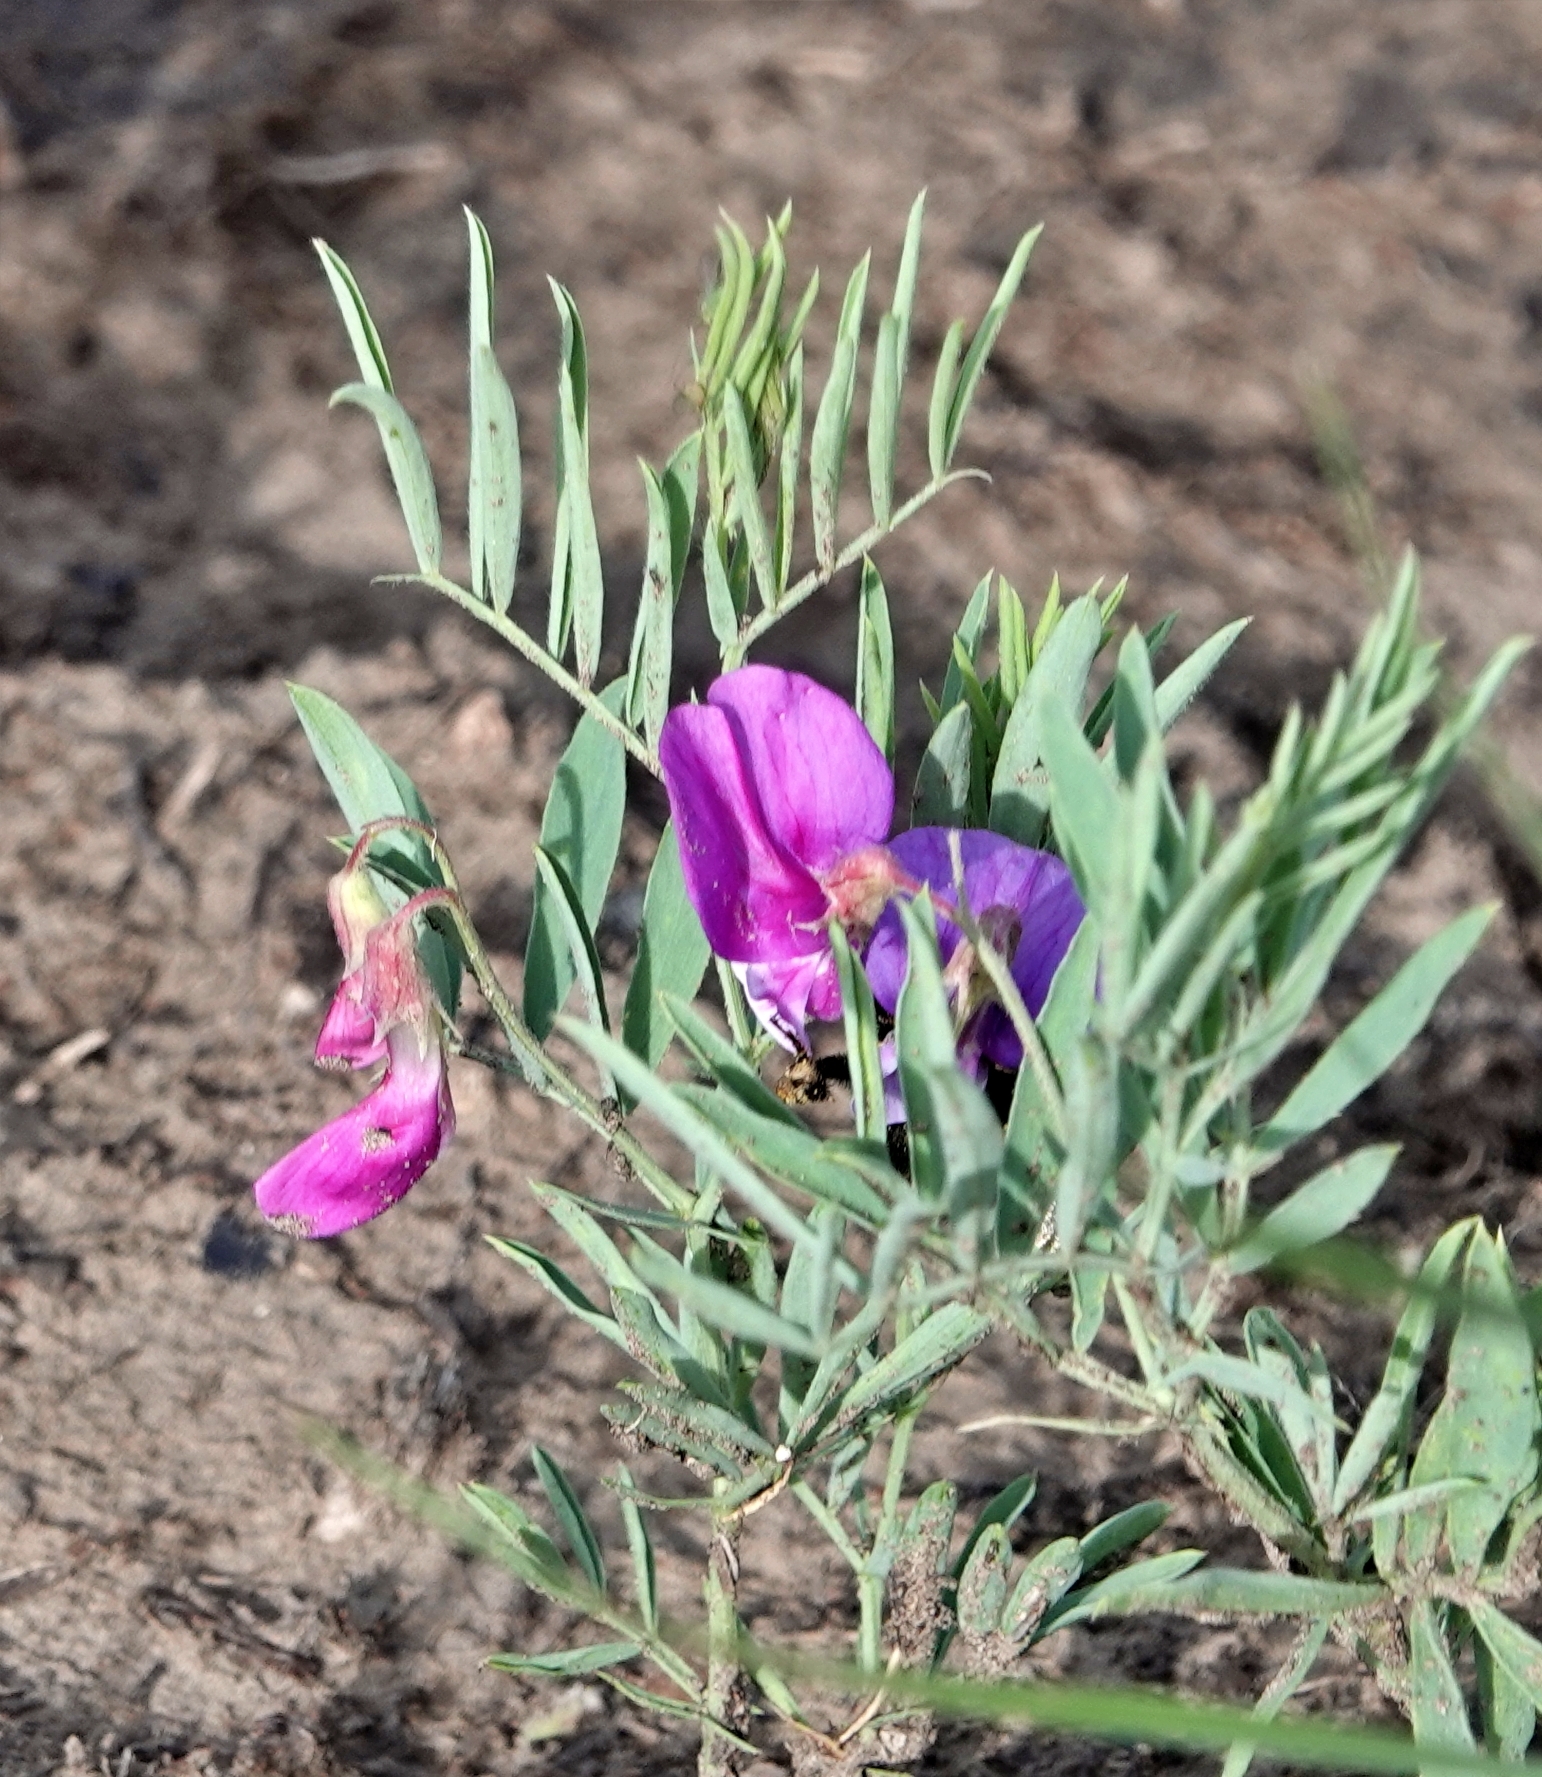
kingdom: Plantae
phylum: Tracheophyta
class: Magnoliopsida
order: Fabales
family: Fabaceae
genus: Lathyrus
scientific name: Lathyrus
